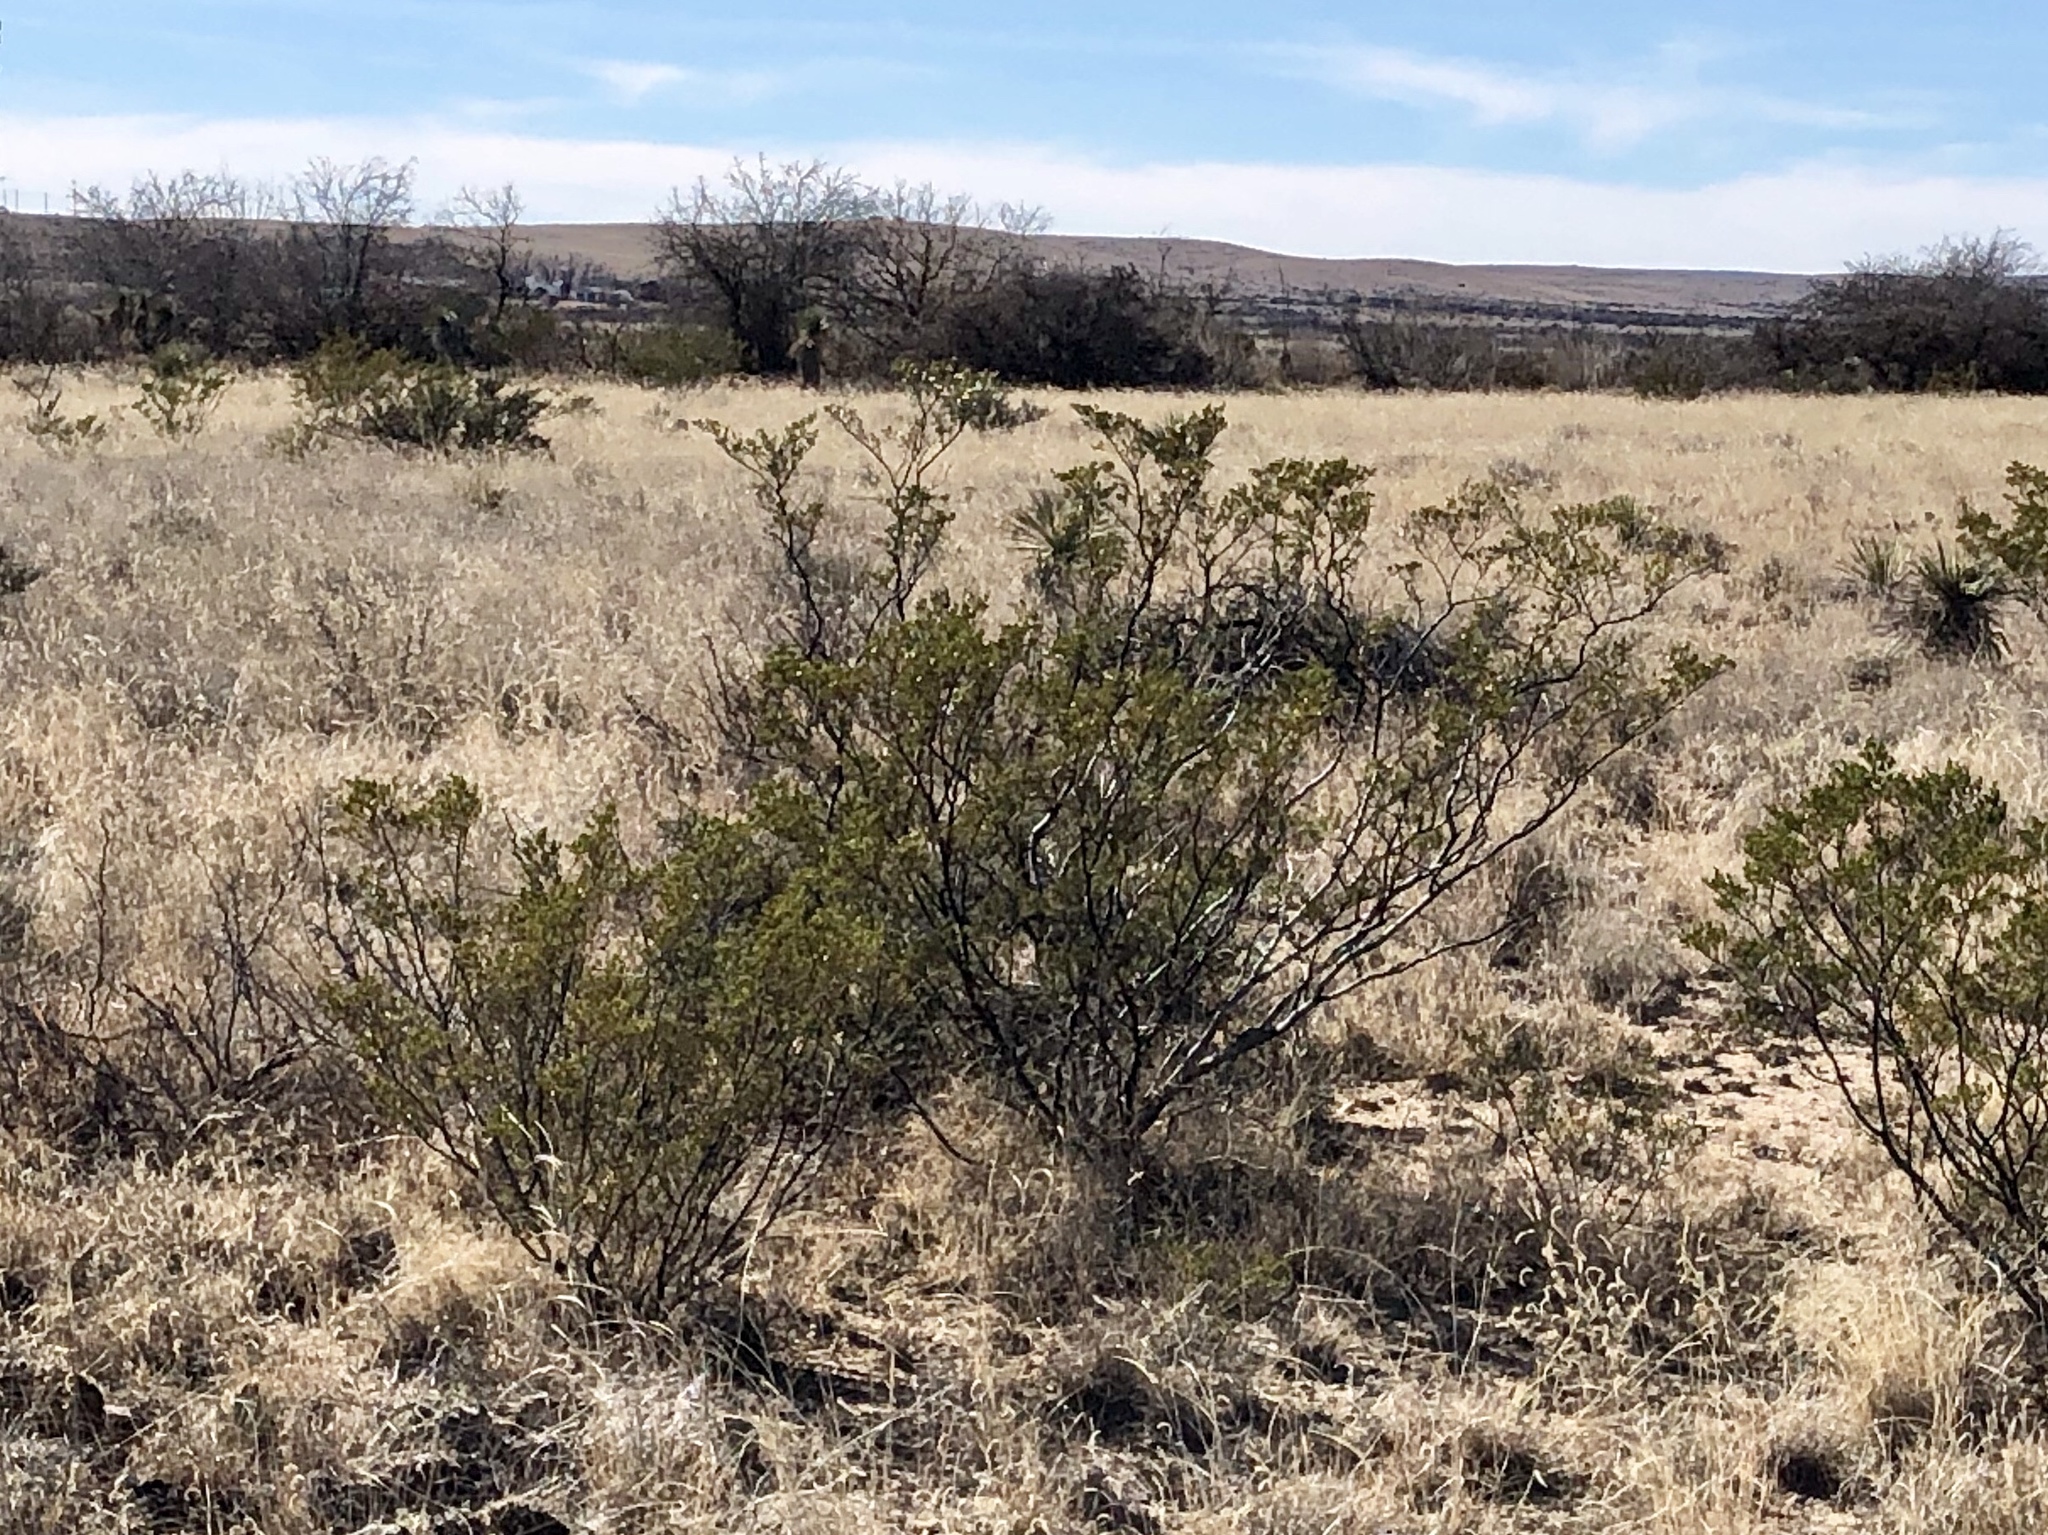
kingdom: Plantae
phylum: Tracheophyta
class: Magnoliopsida
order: Zygophyllales
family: Zygophyllaceae
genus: Larrea
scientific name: Larrea tridentata
